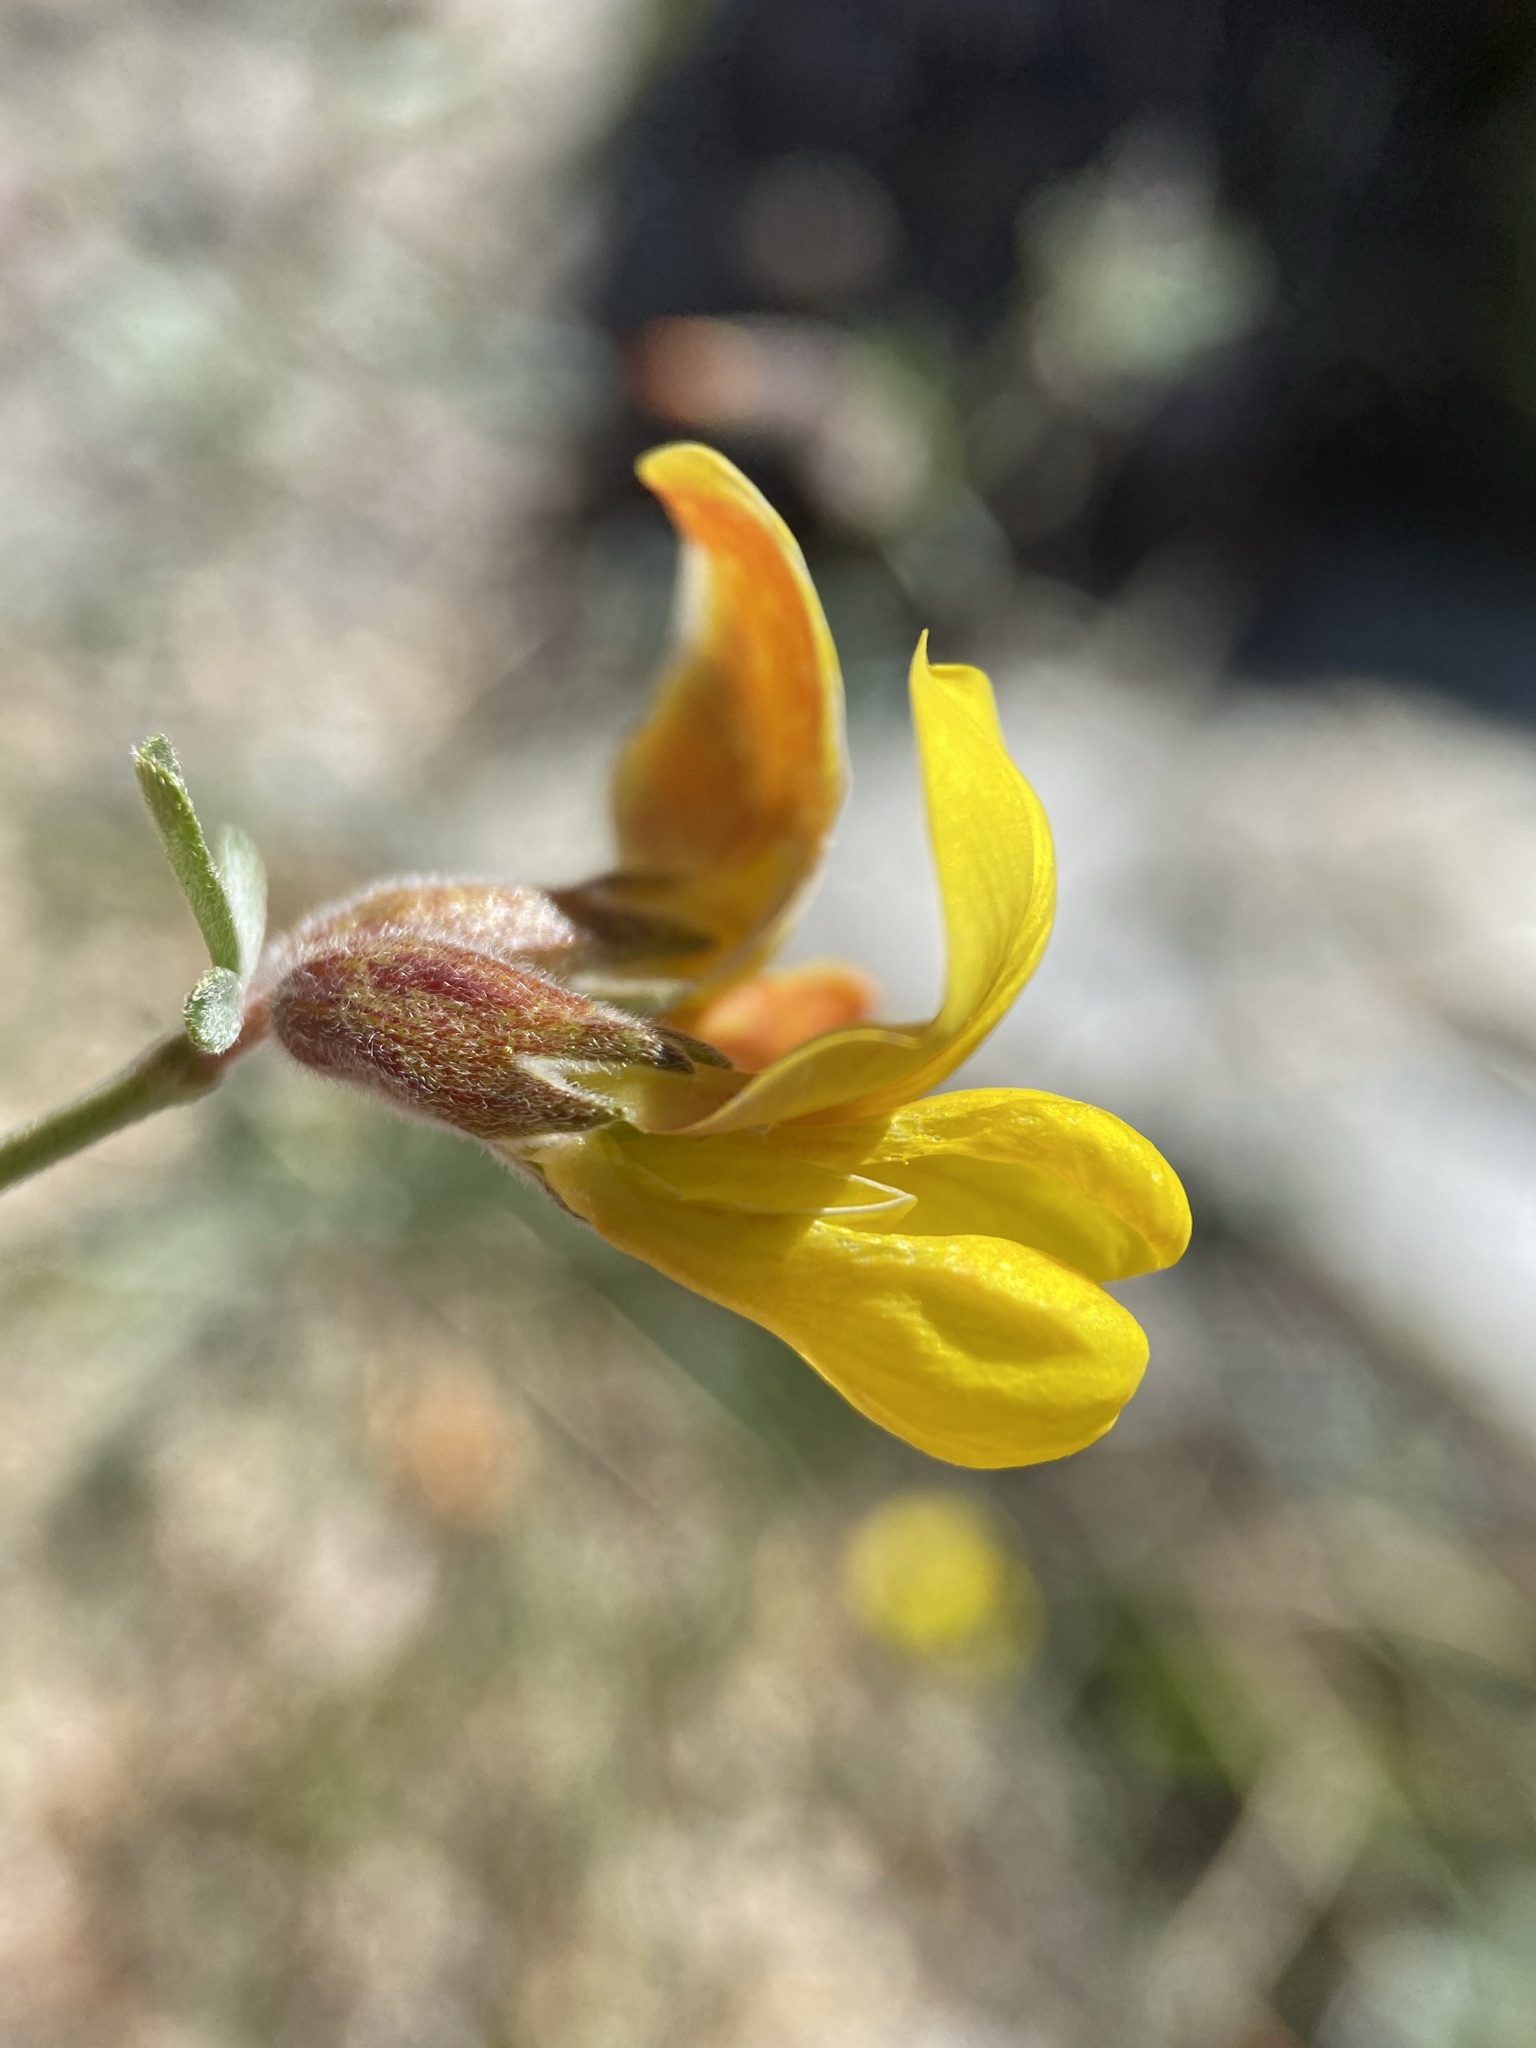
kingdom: Plantae
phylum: Tracheophyta
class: Magnoliopsida
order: Fabales
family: Fabaceae
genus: Acmispon
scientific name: Acmispon rigidus
